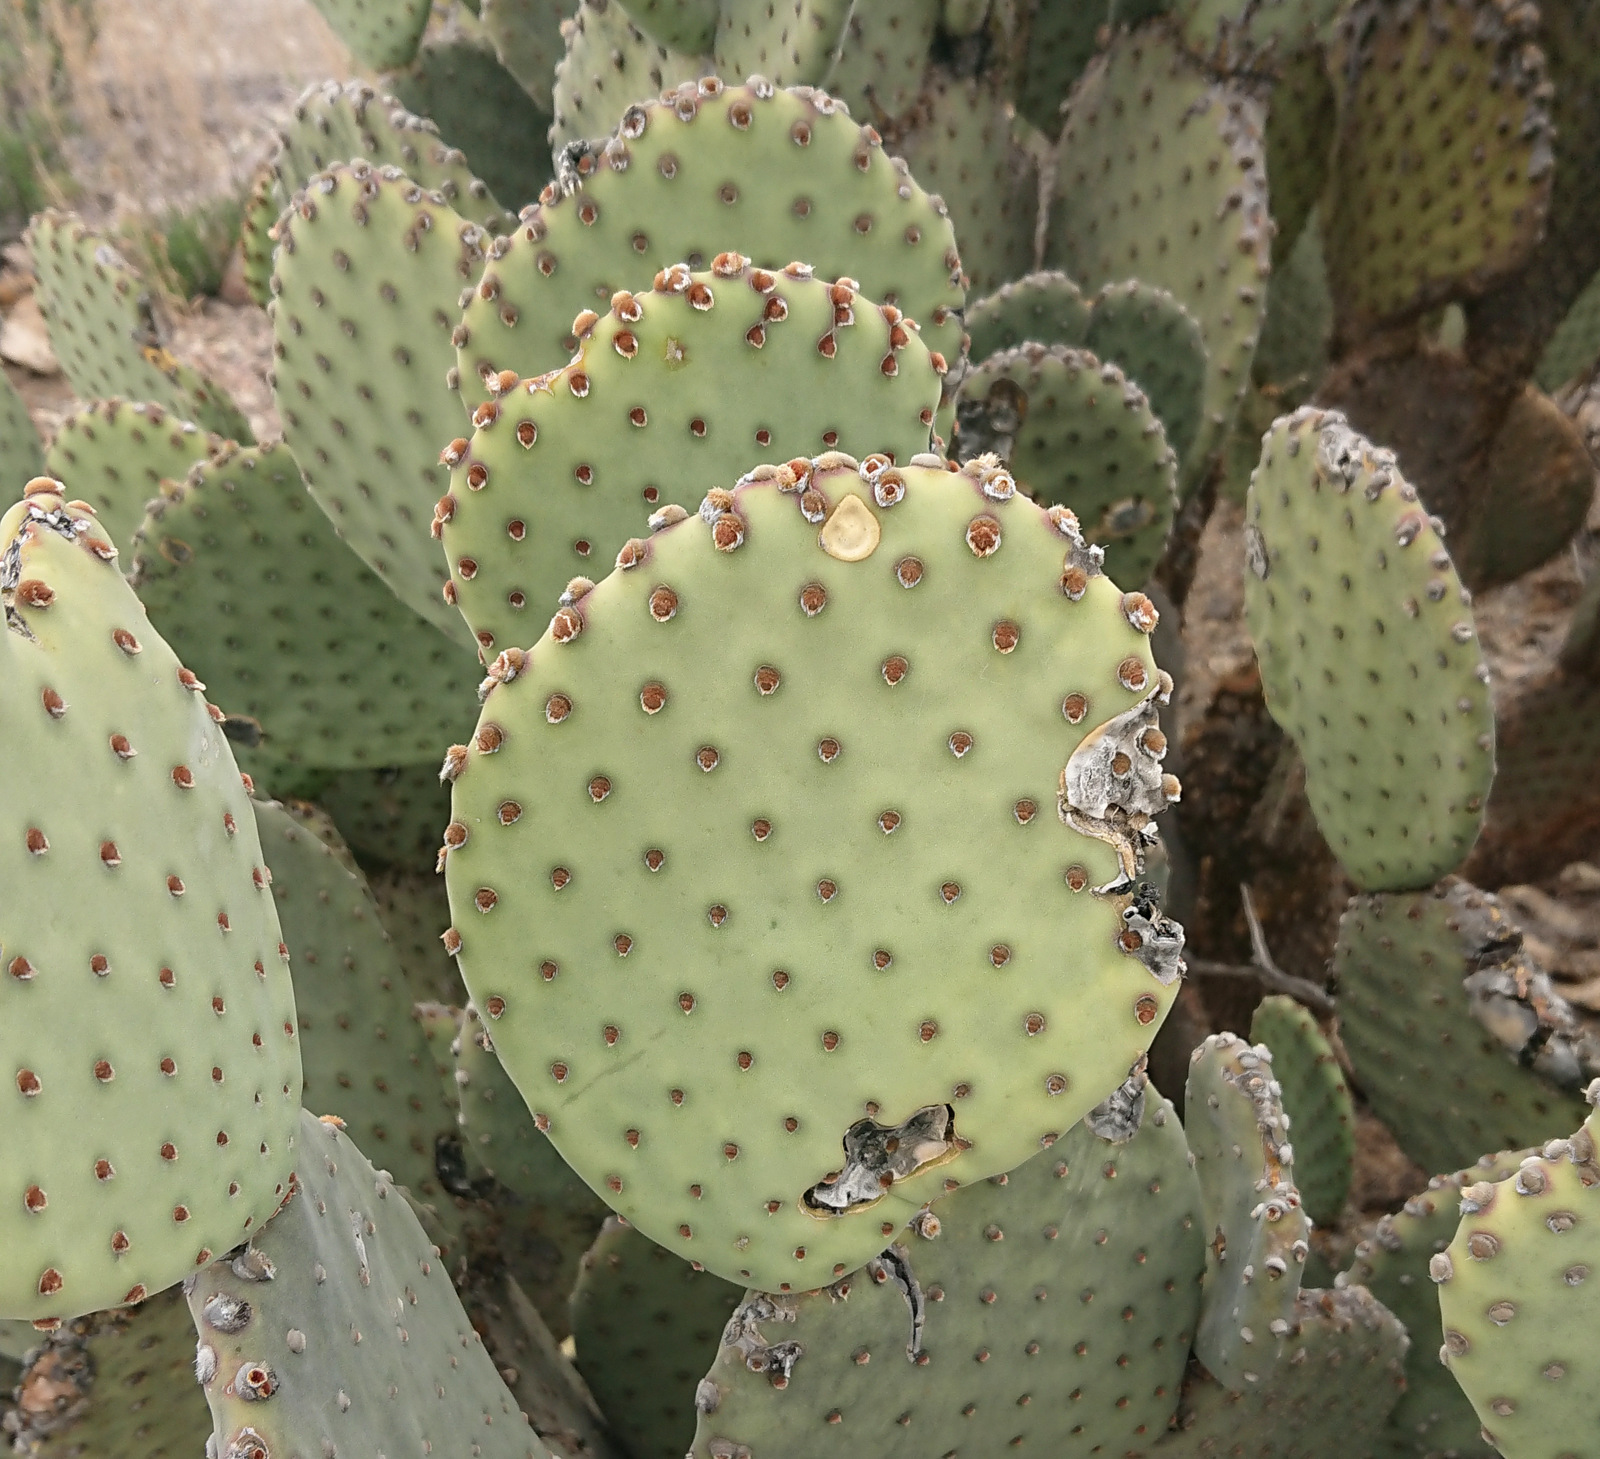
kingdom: Plantae
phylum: Tracheophyta
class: Magnoliopsida
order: Caryophyllales
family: Cactaceae
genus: Opuntia
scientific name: Opuntia rufida
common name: Blind pricklypear
